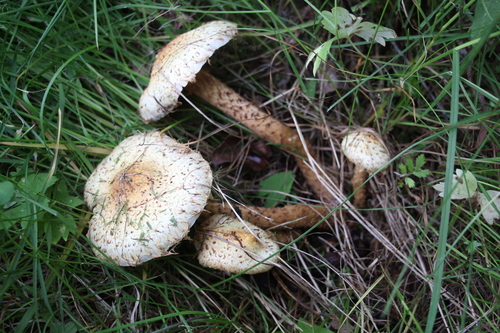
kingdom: Fungi
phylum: Basidiomycota
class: Agaricomycetes
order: Agaricales
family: Strophariaceae
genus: Pholiota
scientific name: Pholiota kodiakensis
